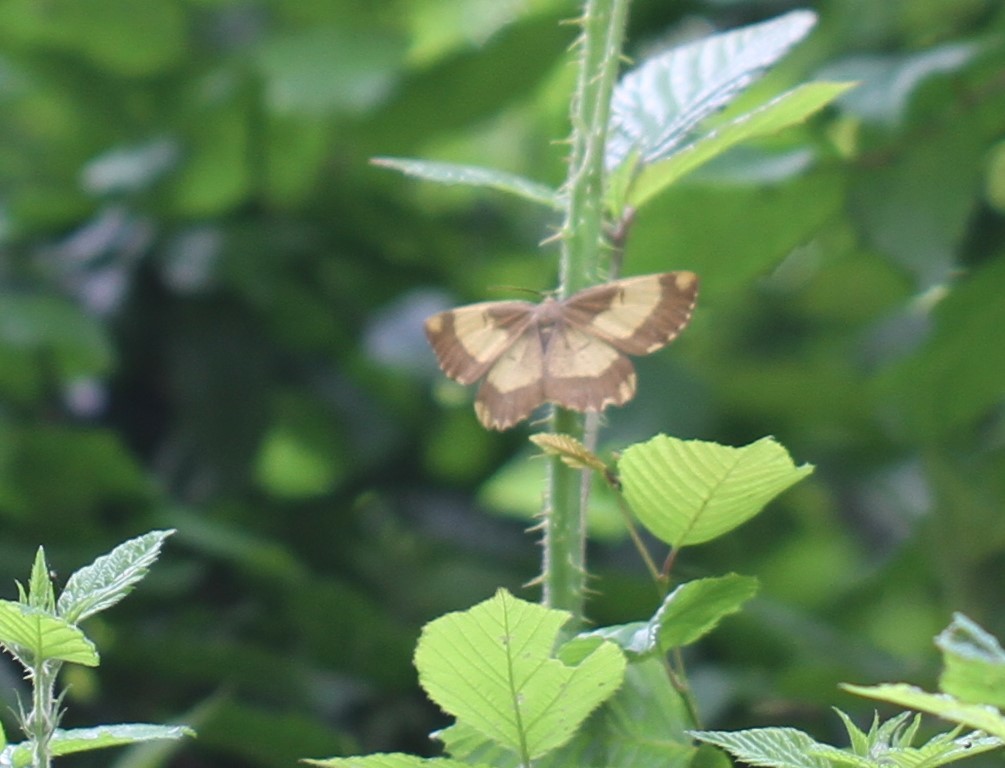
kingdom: Animalia
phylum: Arthropoda
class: Insecta
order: Lepidoptera
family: Geometridae
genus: Angerona
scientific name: Angerona prunaria
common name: Orange moth
